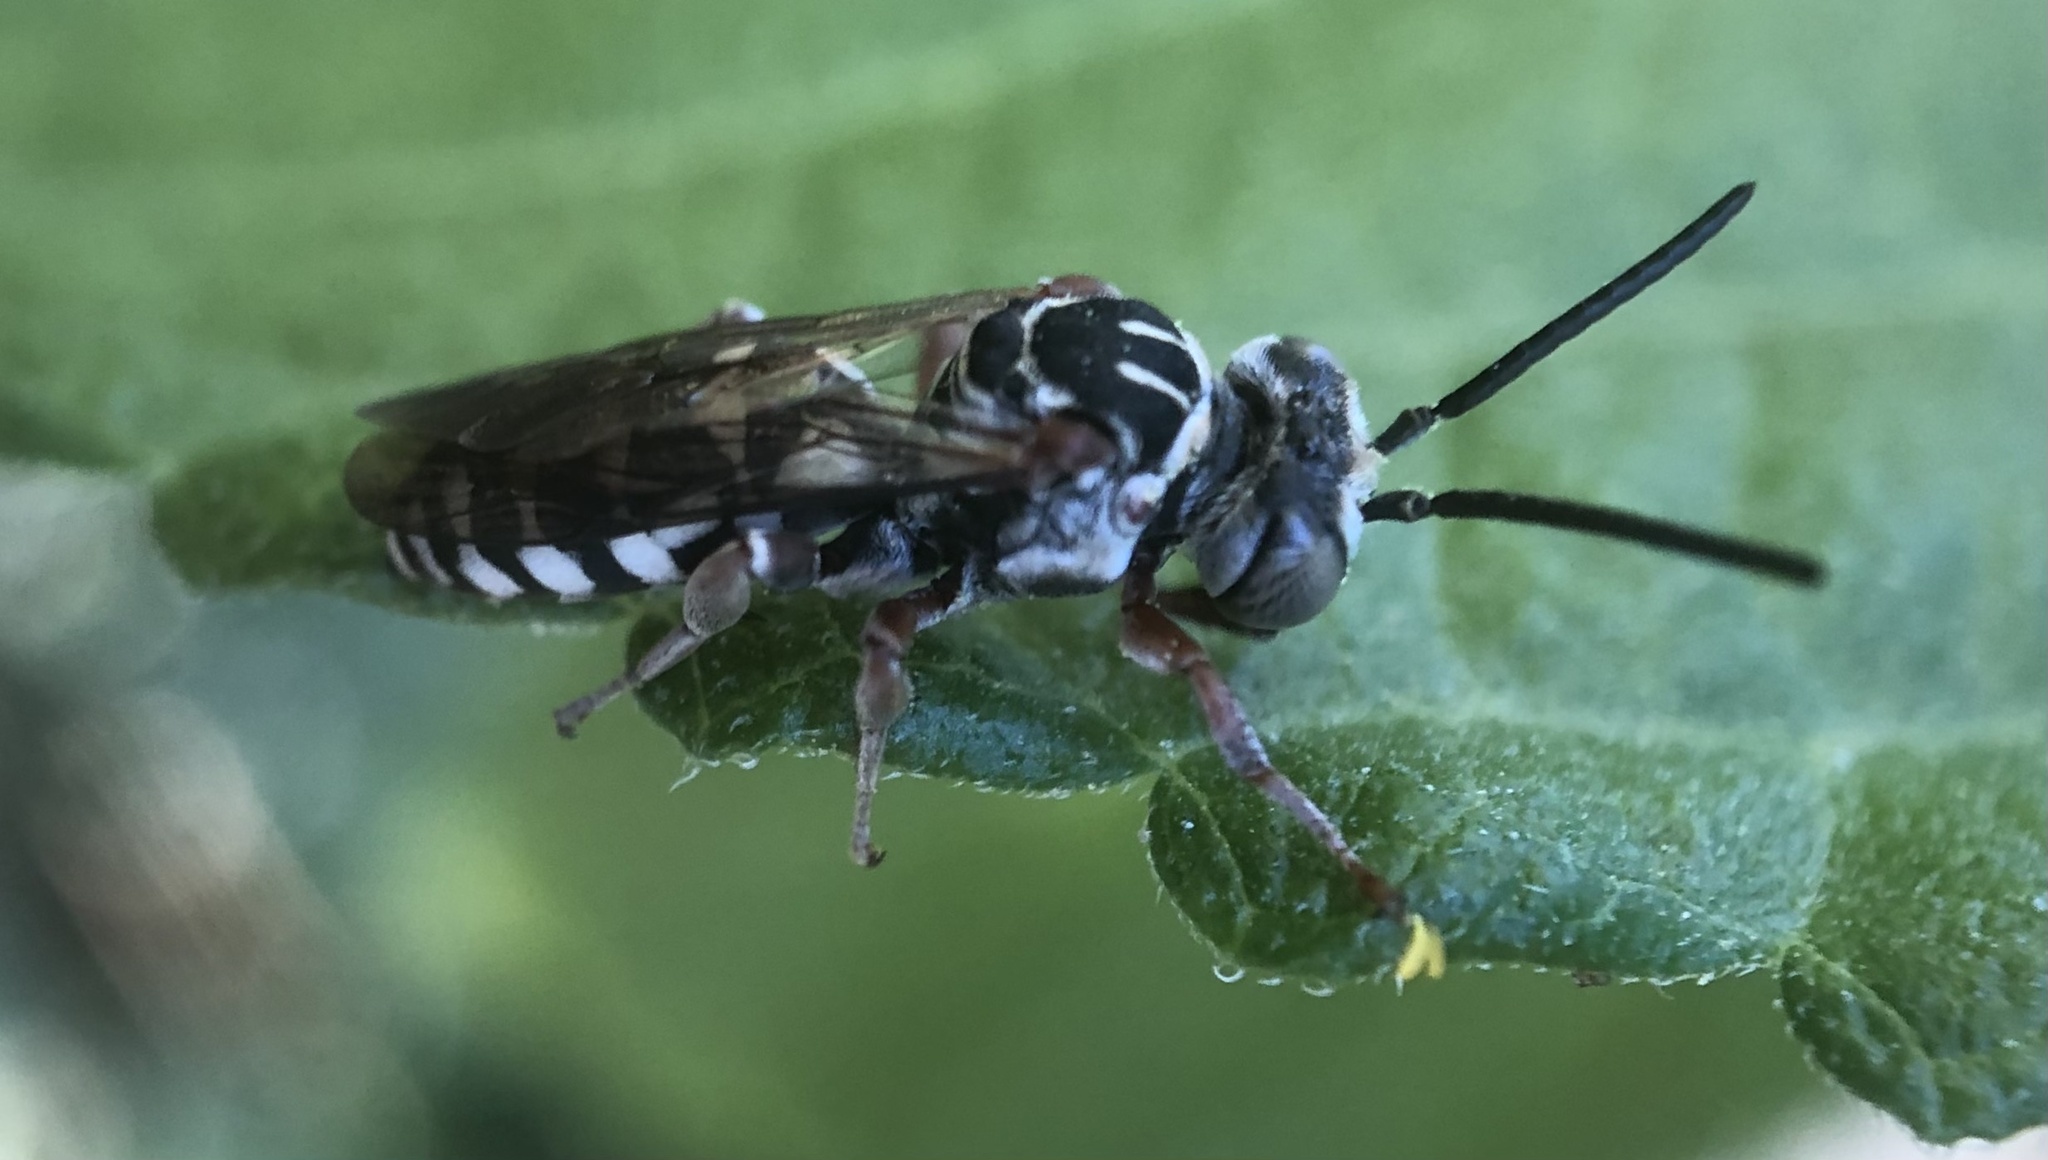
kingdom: Animalia
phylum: Arthropoda
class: Insecta
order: Hymenoptera
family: Apidae
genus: Triepeolus
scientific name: Triepeolus verbesinae
